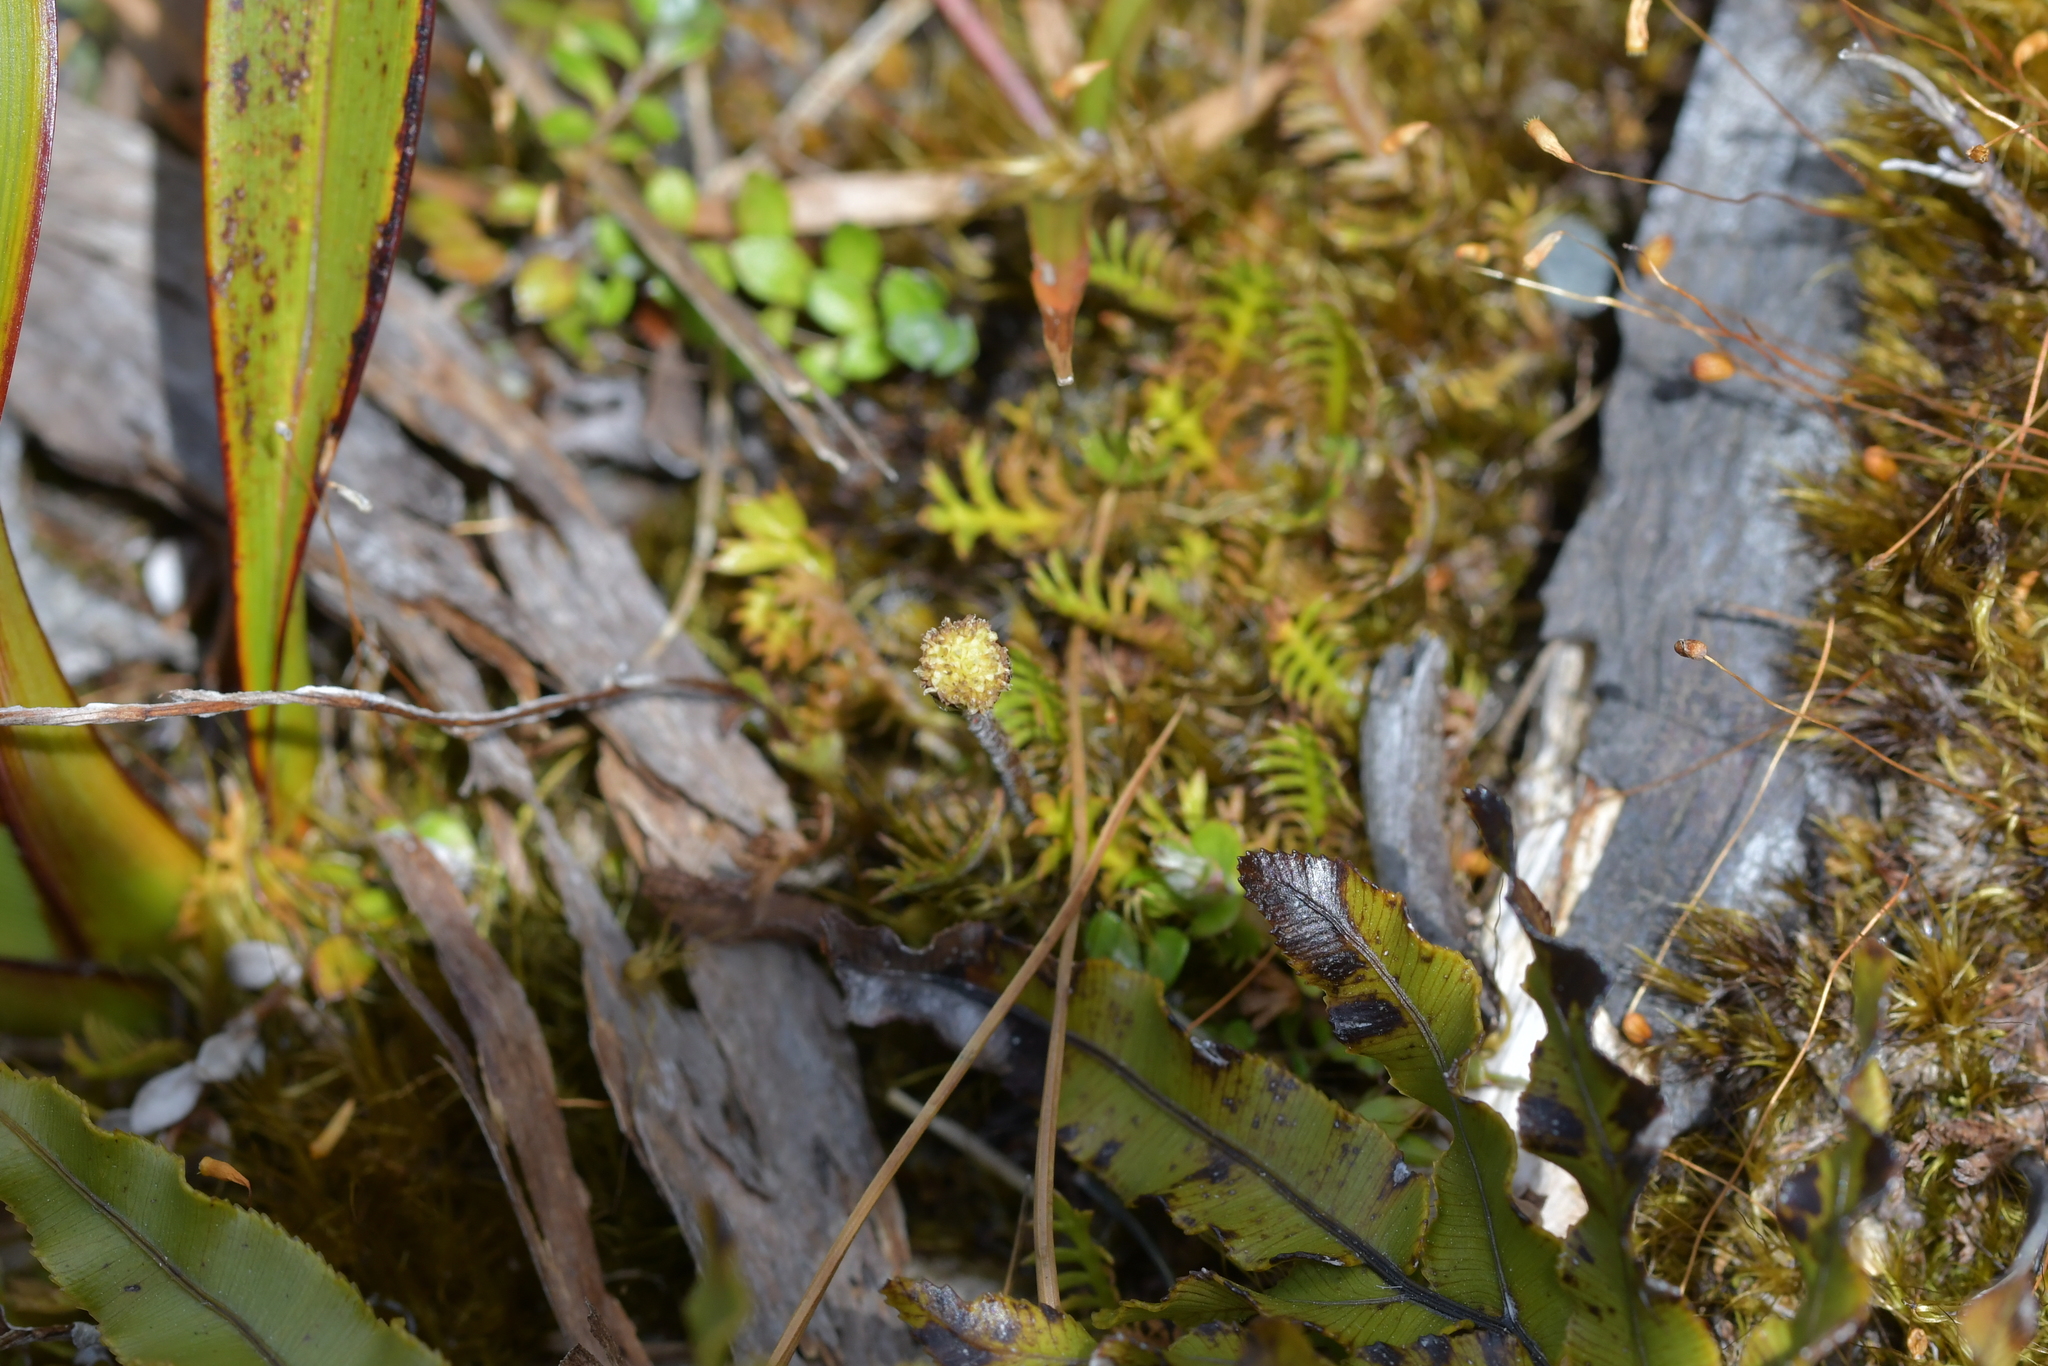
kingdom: Plantae
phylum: Tracheophyta
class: Magnoliopsida
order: Asterales
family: Asteraceae
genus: Leptinella
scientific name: Leptinella squalida
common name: New zealand brass-buttons
